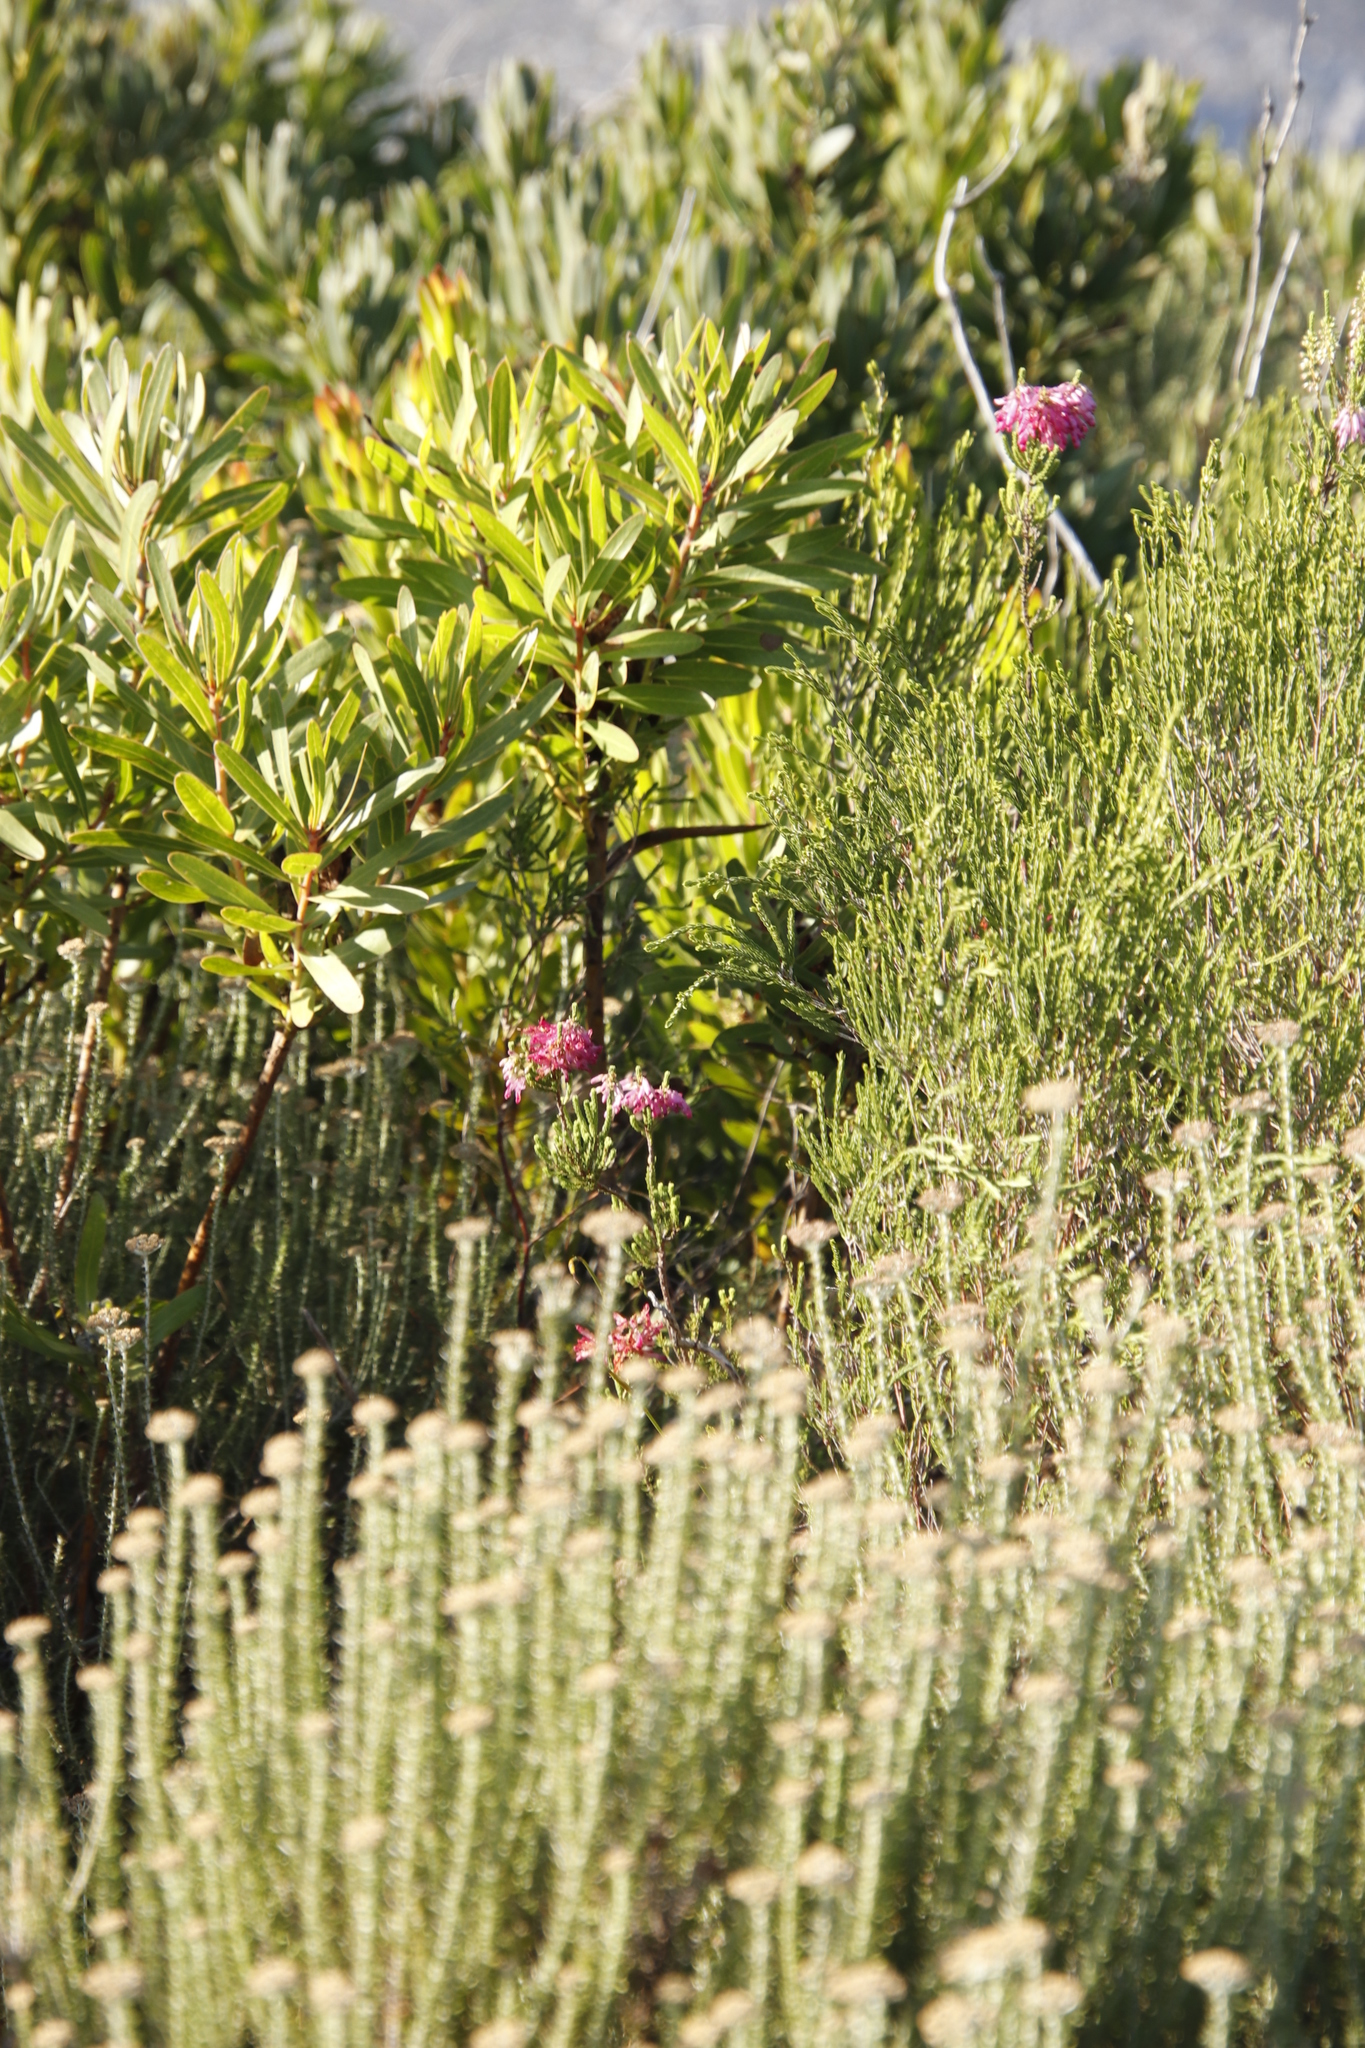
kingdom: Plantae
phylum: Tracheophyta
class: Magnoliopsida
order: Ericales
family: Ericaceae
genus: Erica
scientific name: Erica mammosa
